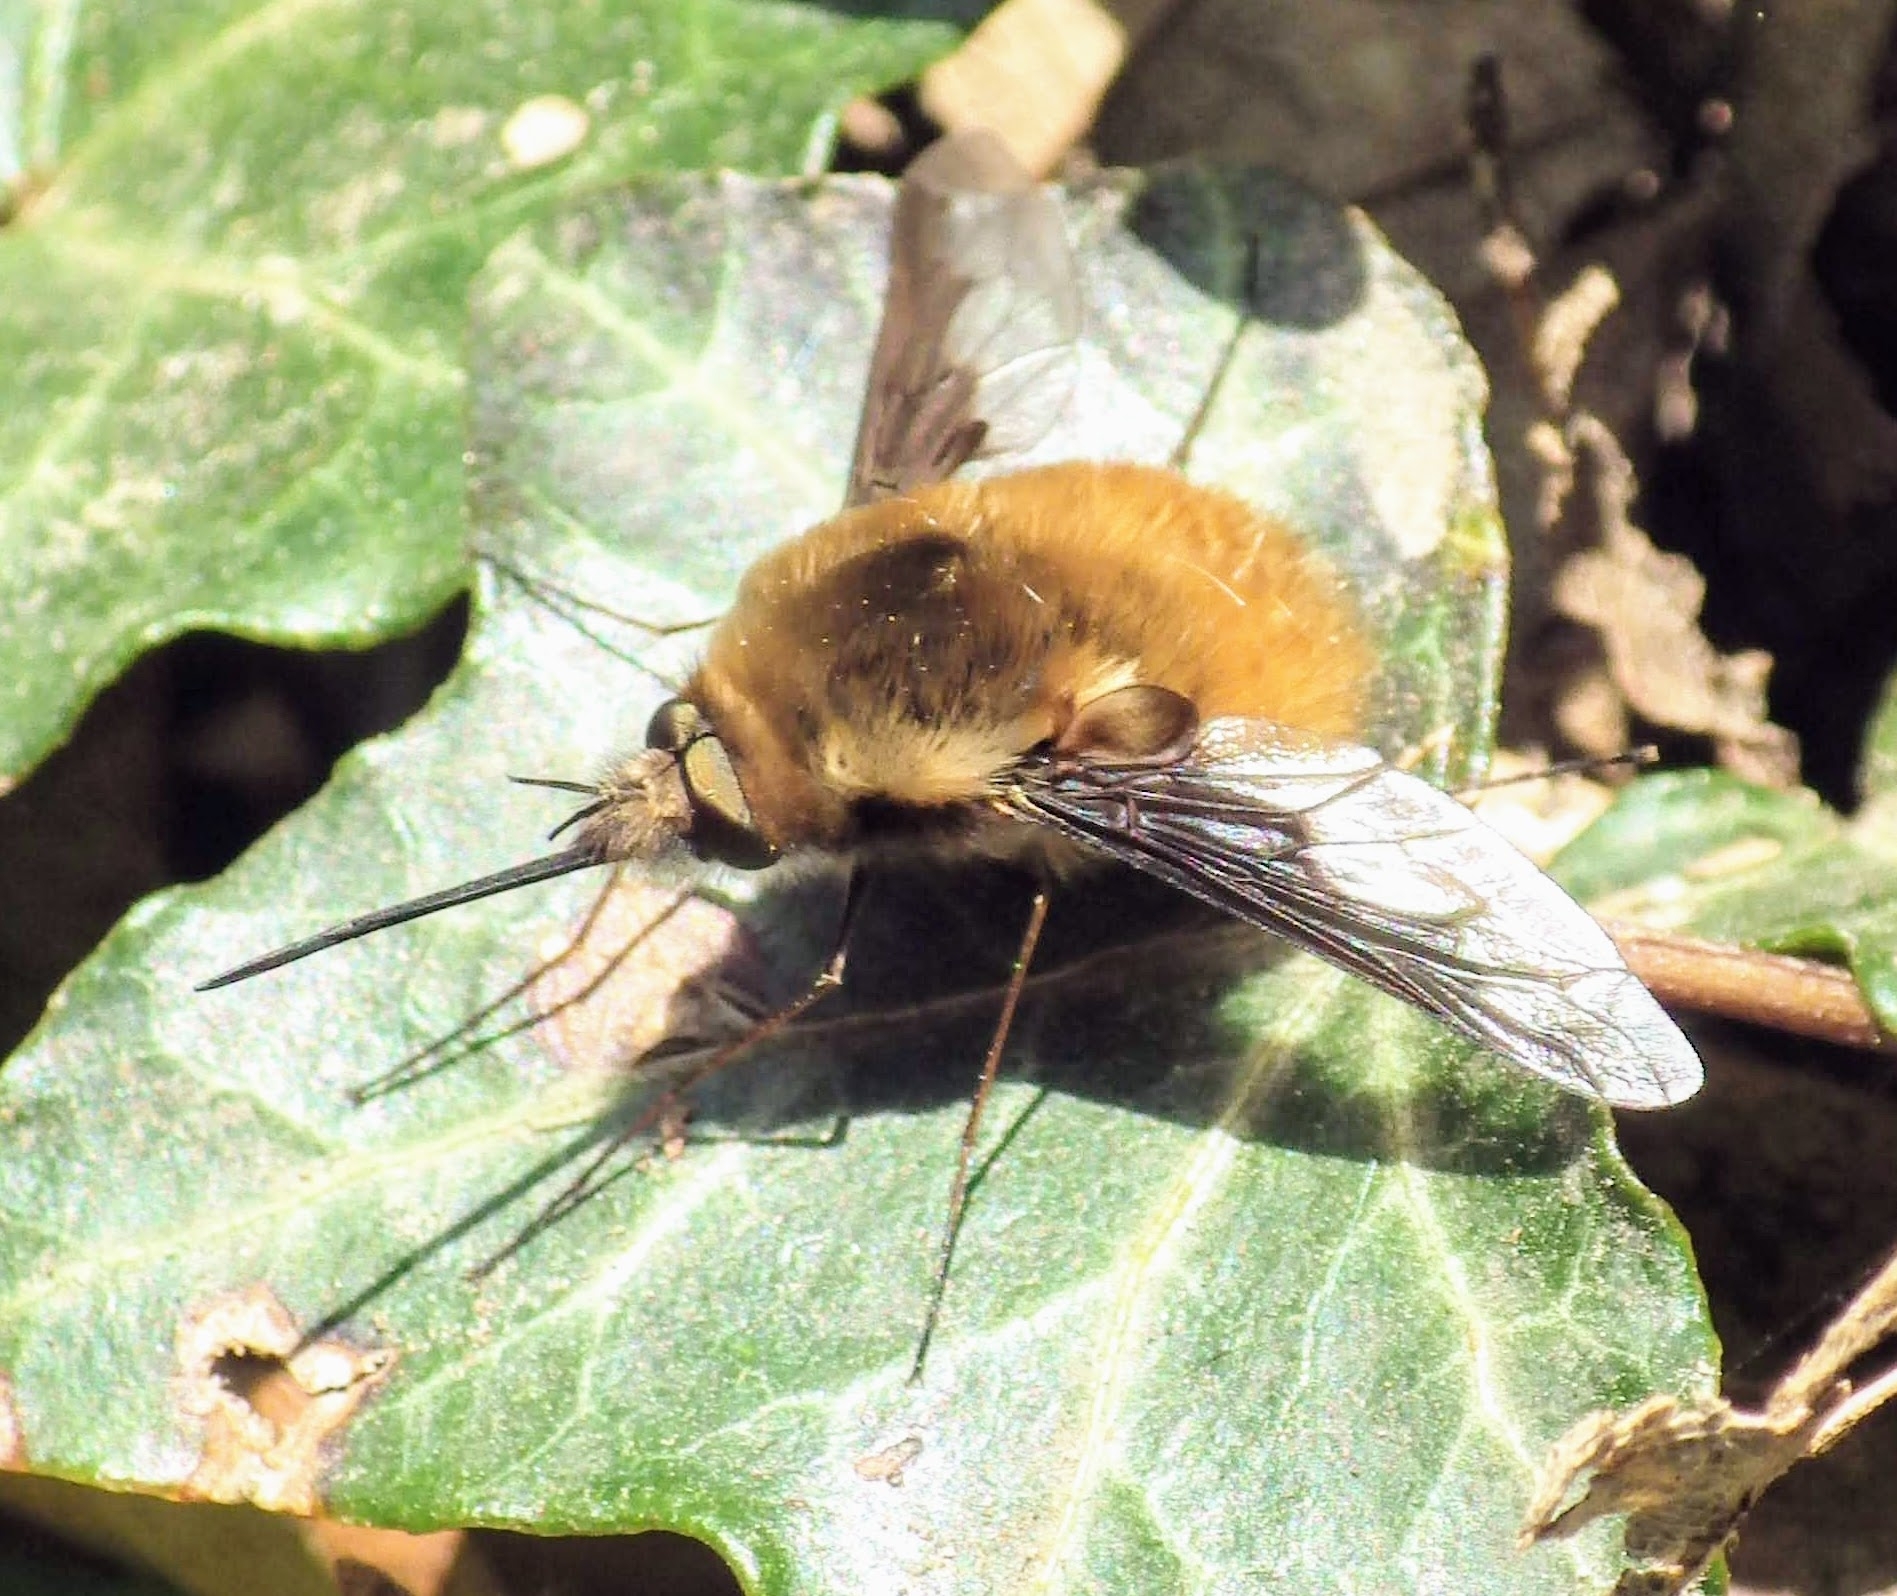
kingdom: Animalia
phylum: Arthropoda
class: Insecta
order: Diptera
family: Bombyliidae
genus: Bombylius
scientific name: Bombylius major
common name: Bee fly
